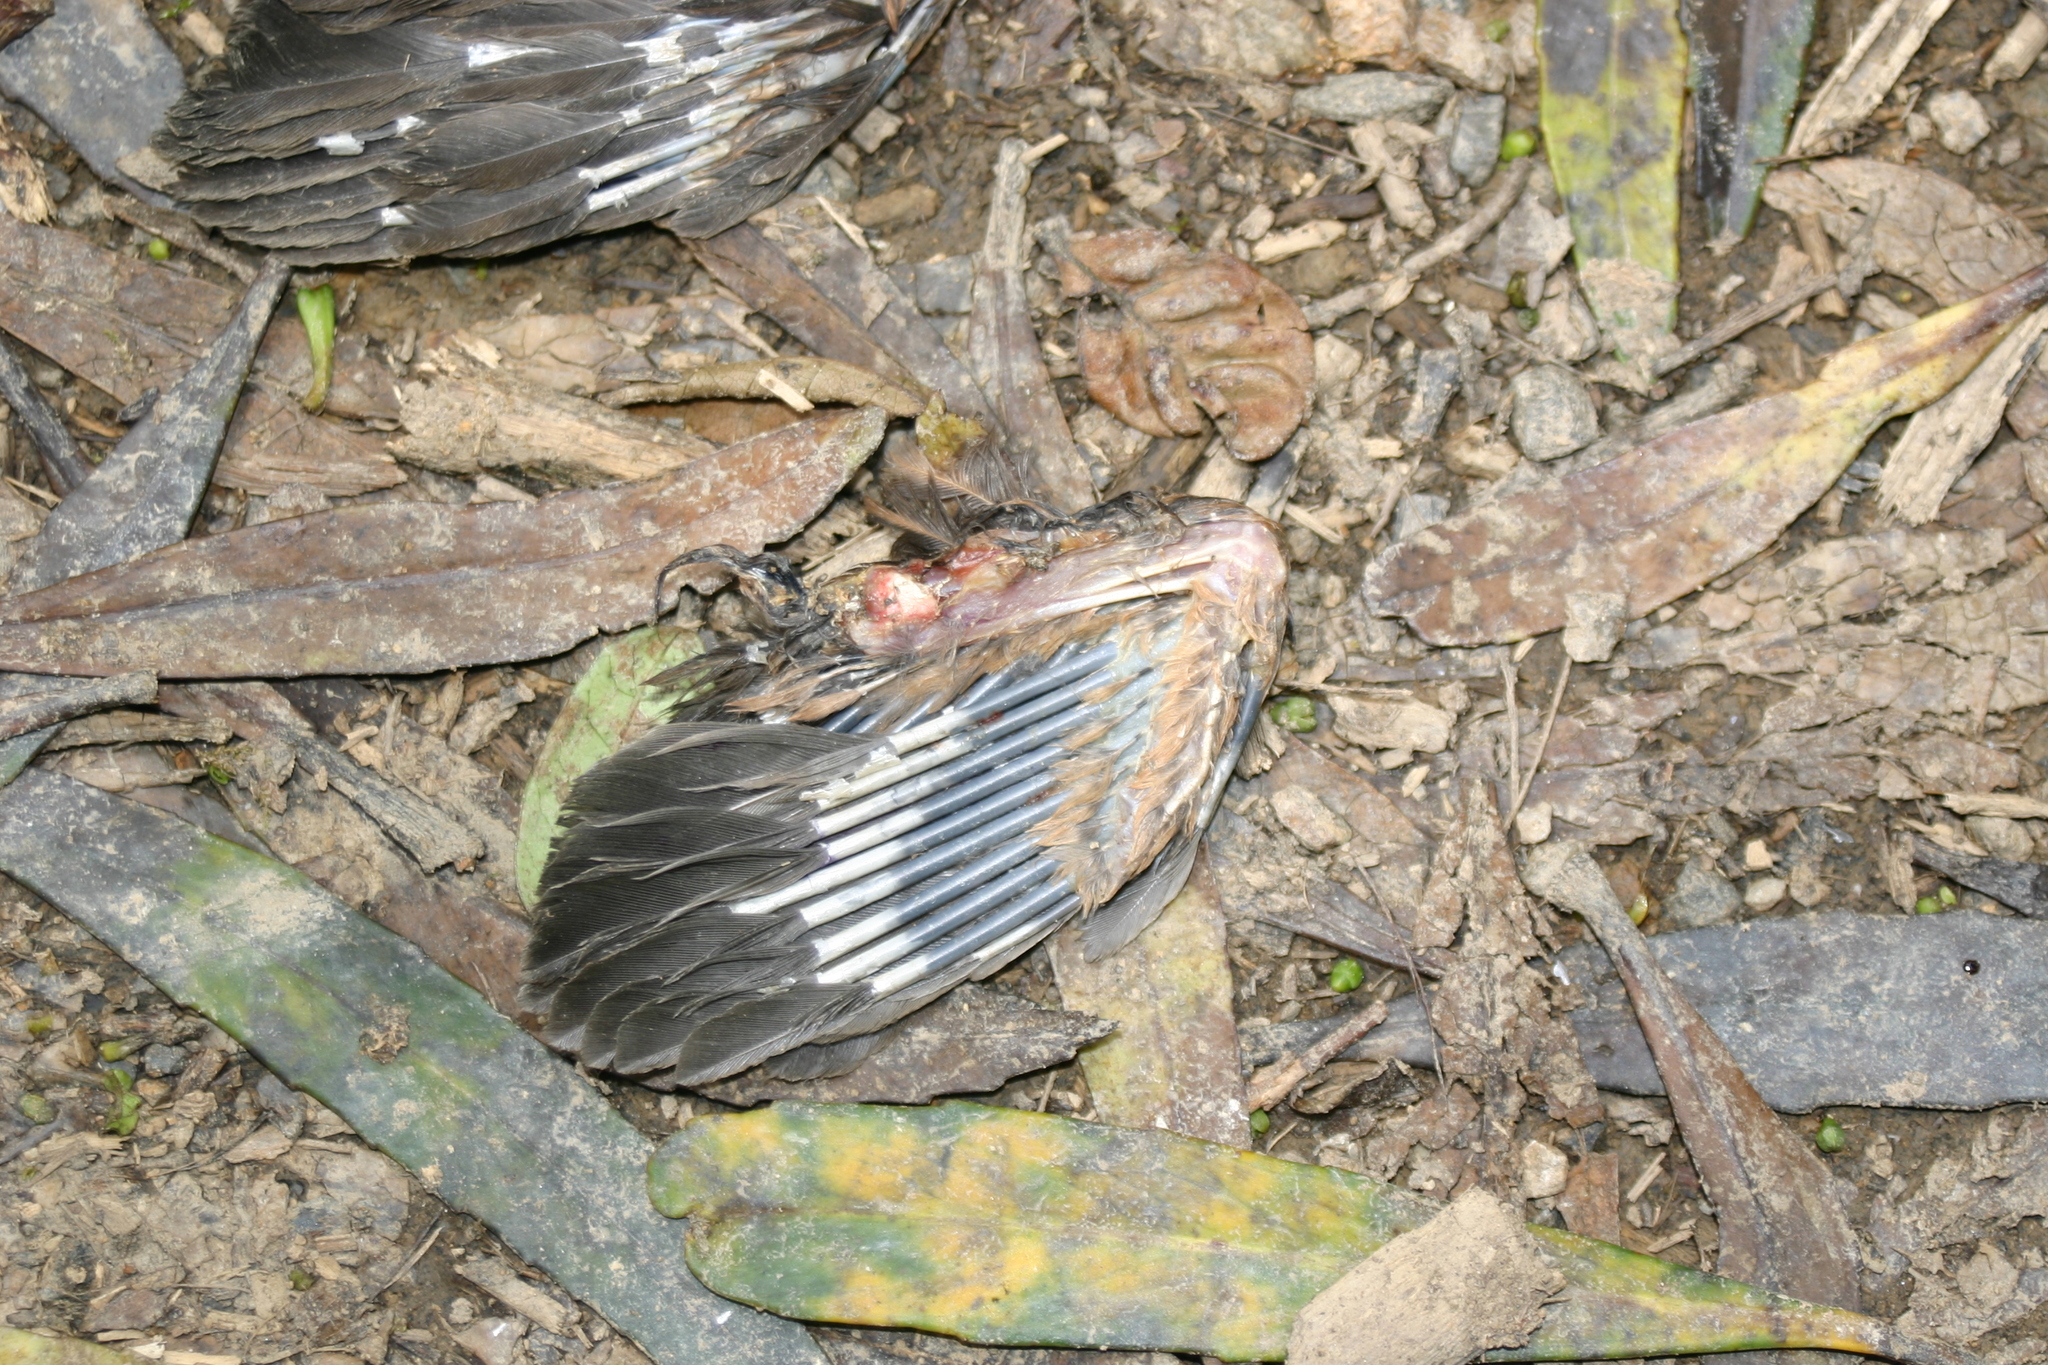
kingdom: Animalia
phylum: Chordata
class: Aves
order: Passeriformes
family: Turdidae
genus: Turdus
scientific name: Turdus philomelos
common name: Song thrush
